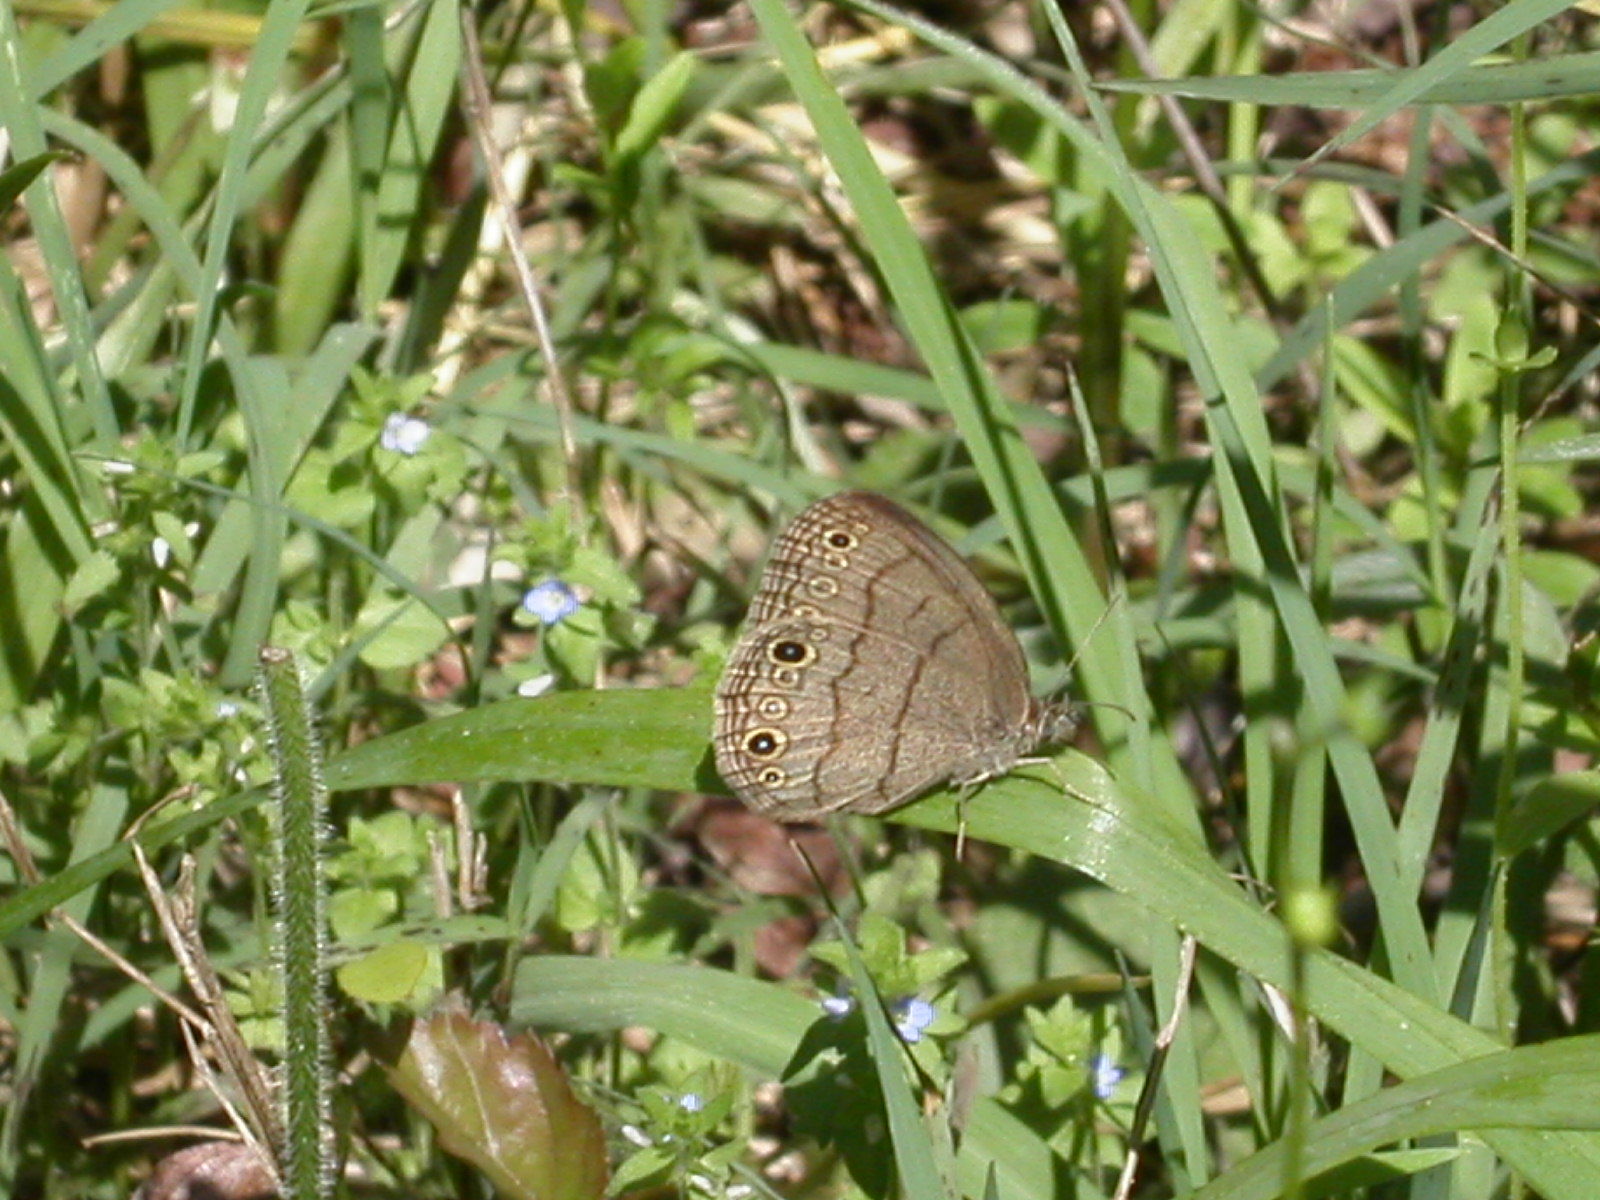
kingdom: Animalia
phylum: Arthropoda
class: Insecta
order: Lepidoptera
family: Nymphalidae
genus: Hermeuptychia
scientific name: Hermeuptychia hermes
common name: Hermes satyr
